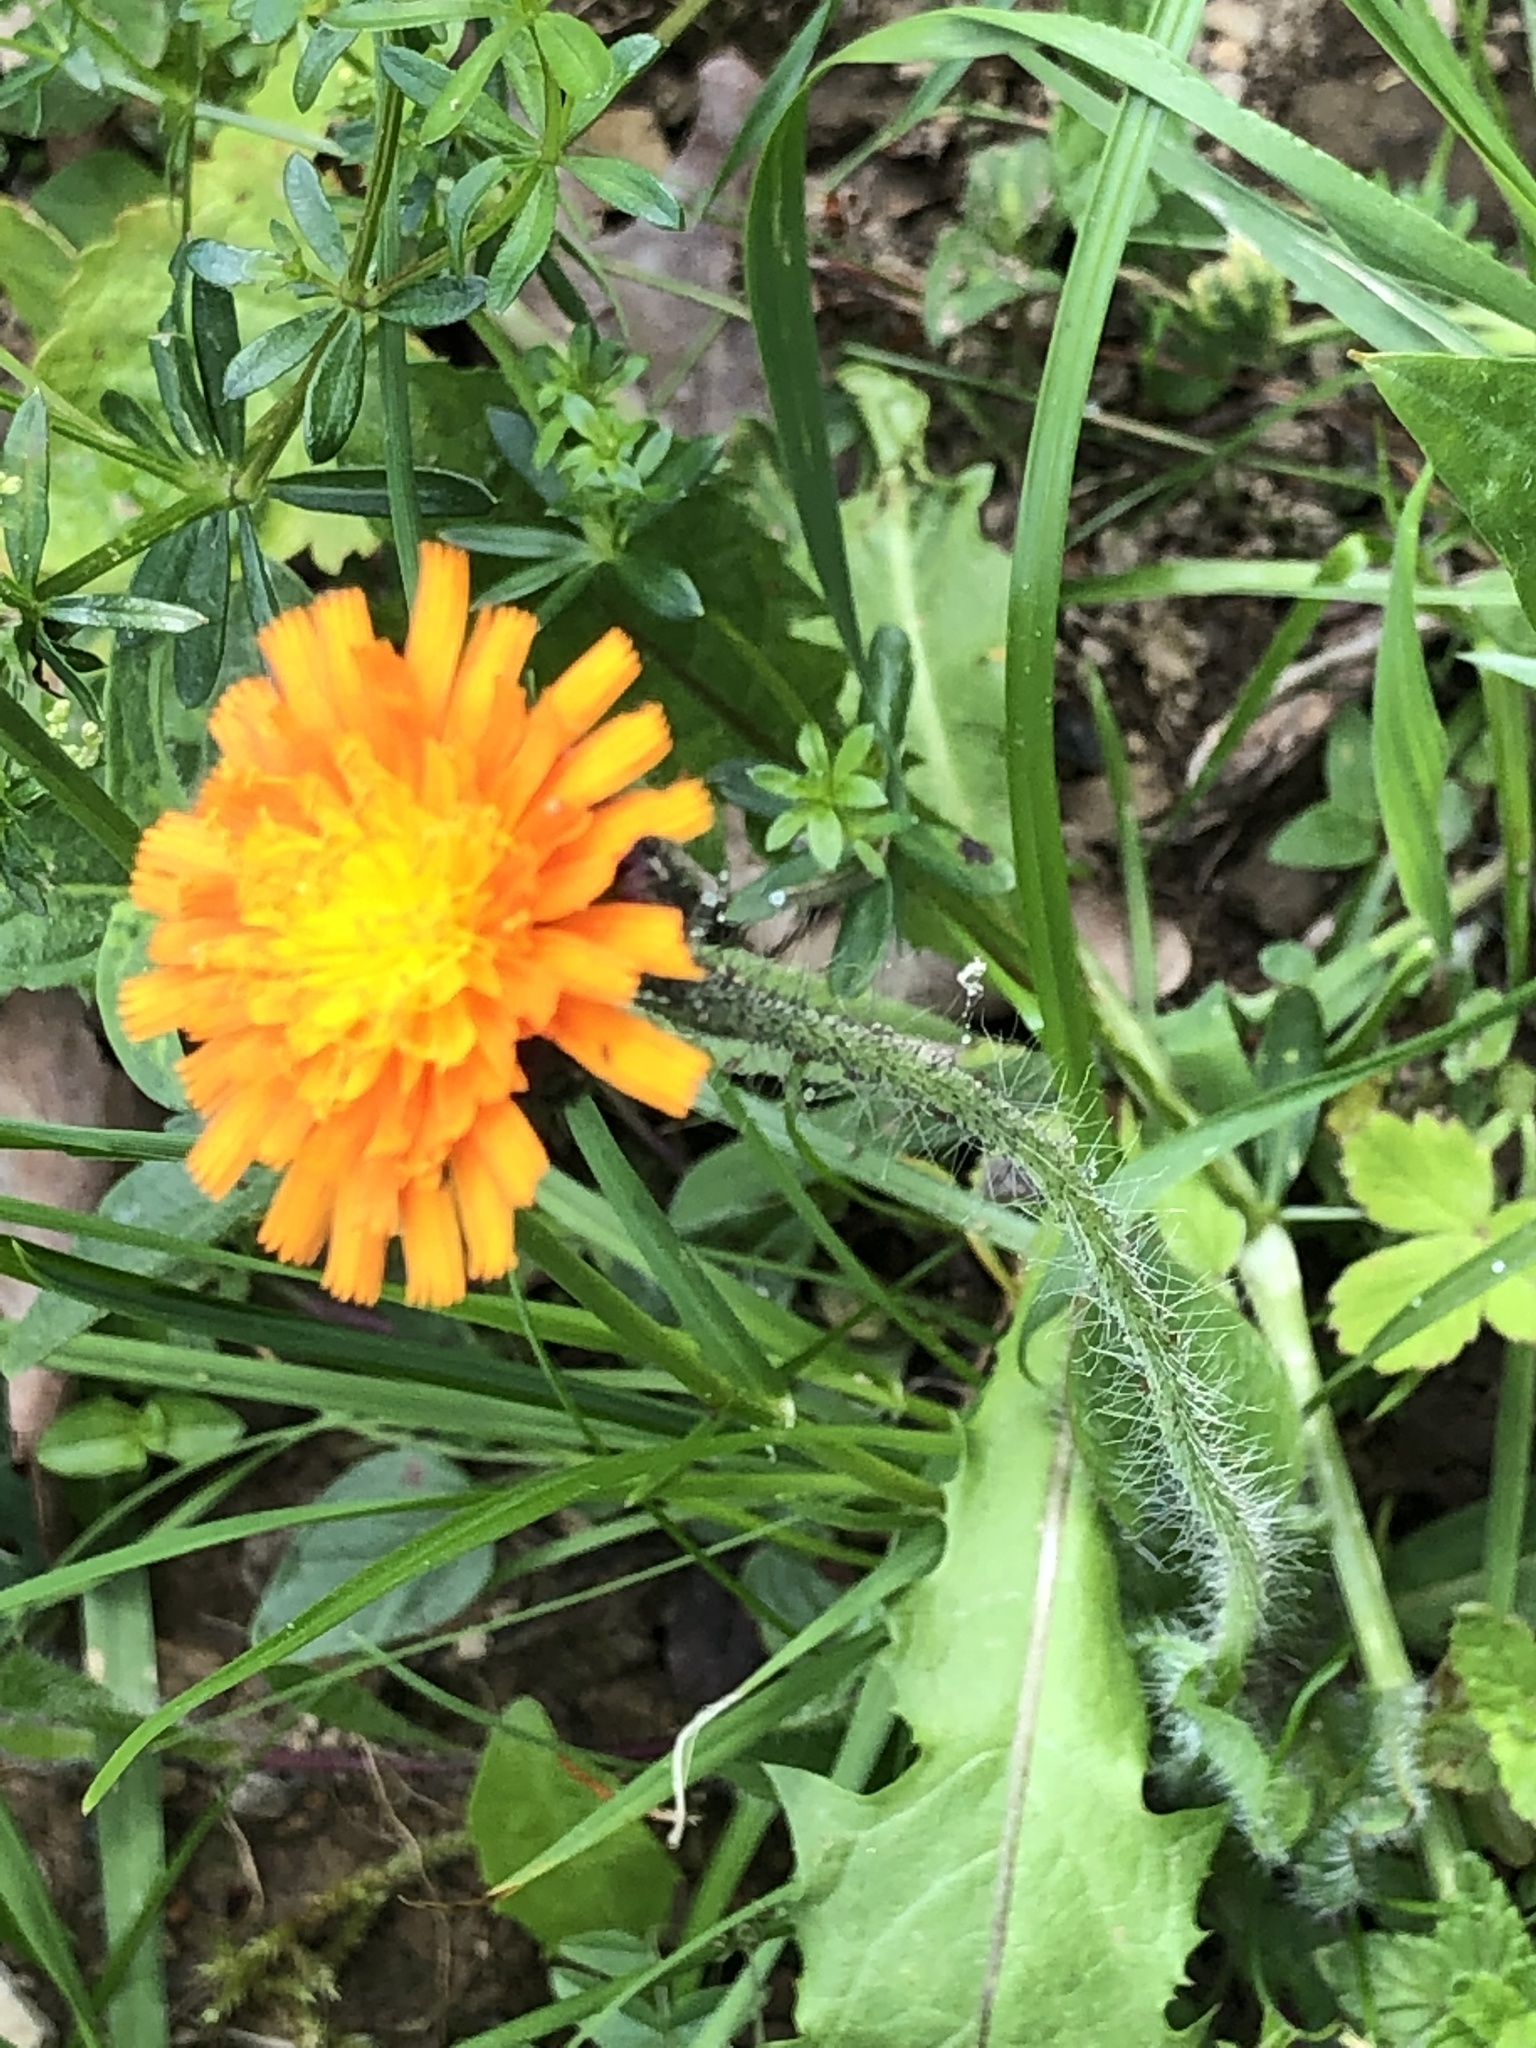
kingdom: Plantae
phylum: Tracheophyta
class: Magnoliopsida
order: Asterales
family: Asteraceae
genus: Pilosella
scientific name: Pilosella aurantiaca
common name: Fox-and-cubs
